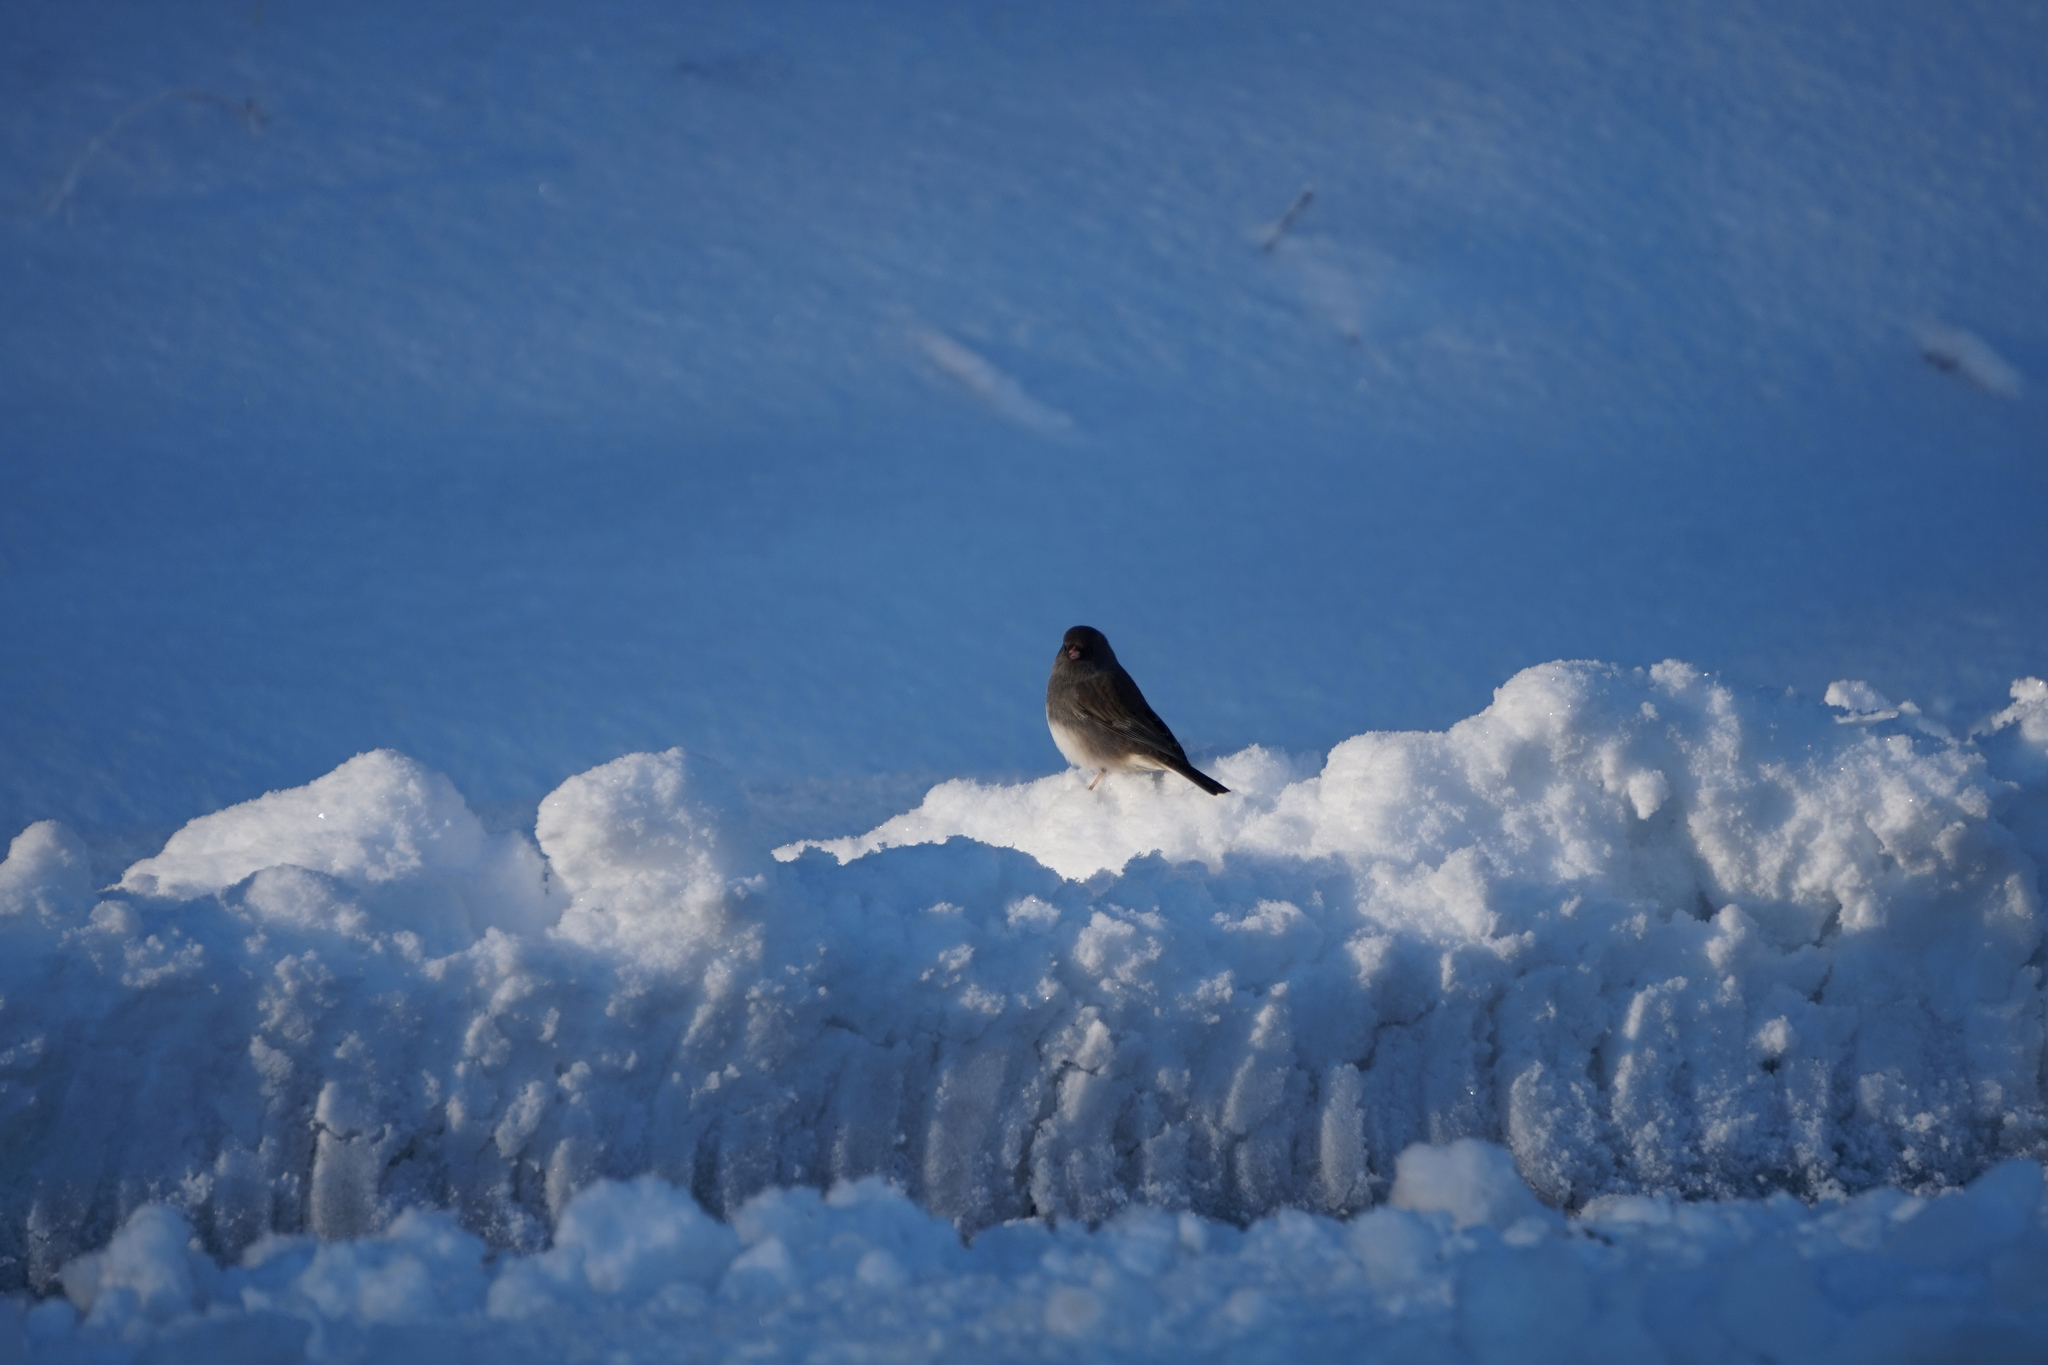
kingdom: Animalia
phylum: Chordata
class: Aves
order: Passeriformes
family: Passerellidae
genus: Junco
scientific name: Junco hyemalis
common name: Dark-eyed junco
